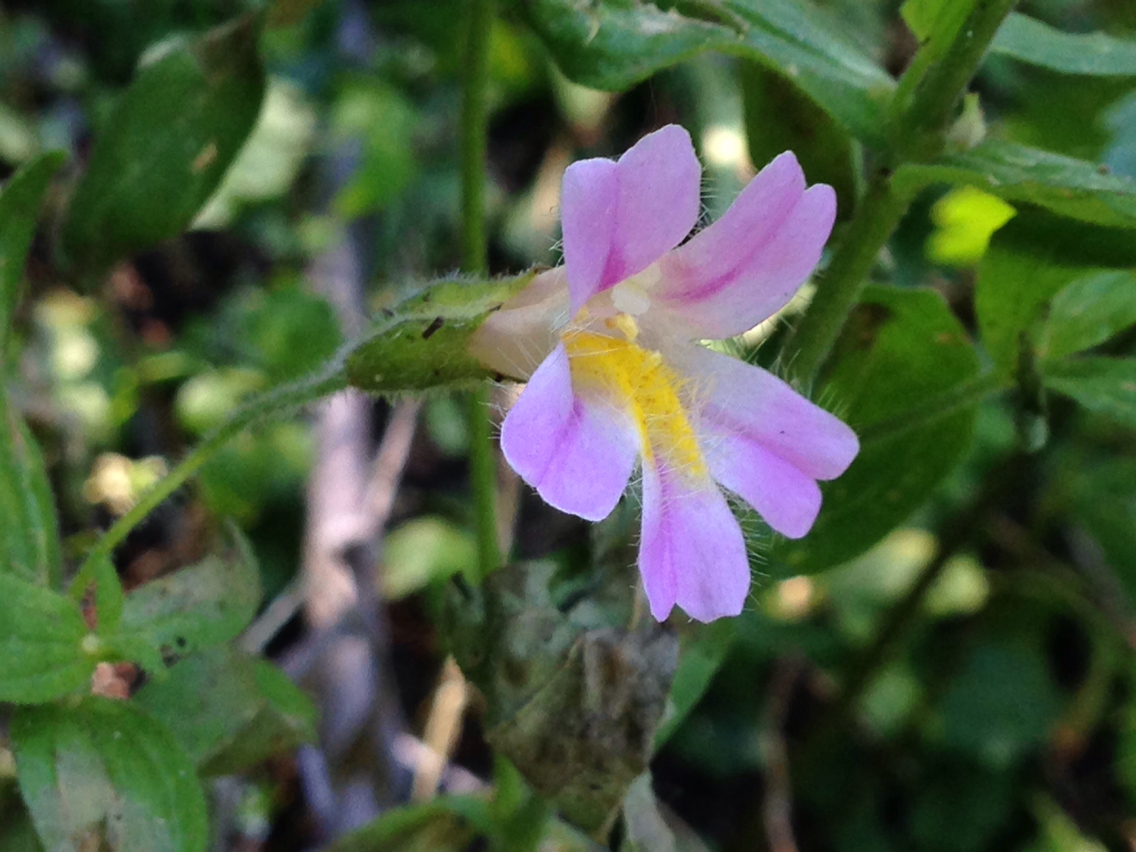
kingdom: Plantae
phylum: Tracheophyta
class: Magnoliopsida
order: Lamiales
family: Phrymaceae
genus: Erythranthe
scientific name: Erythranthe erubescens
